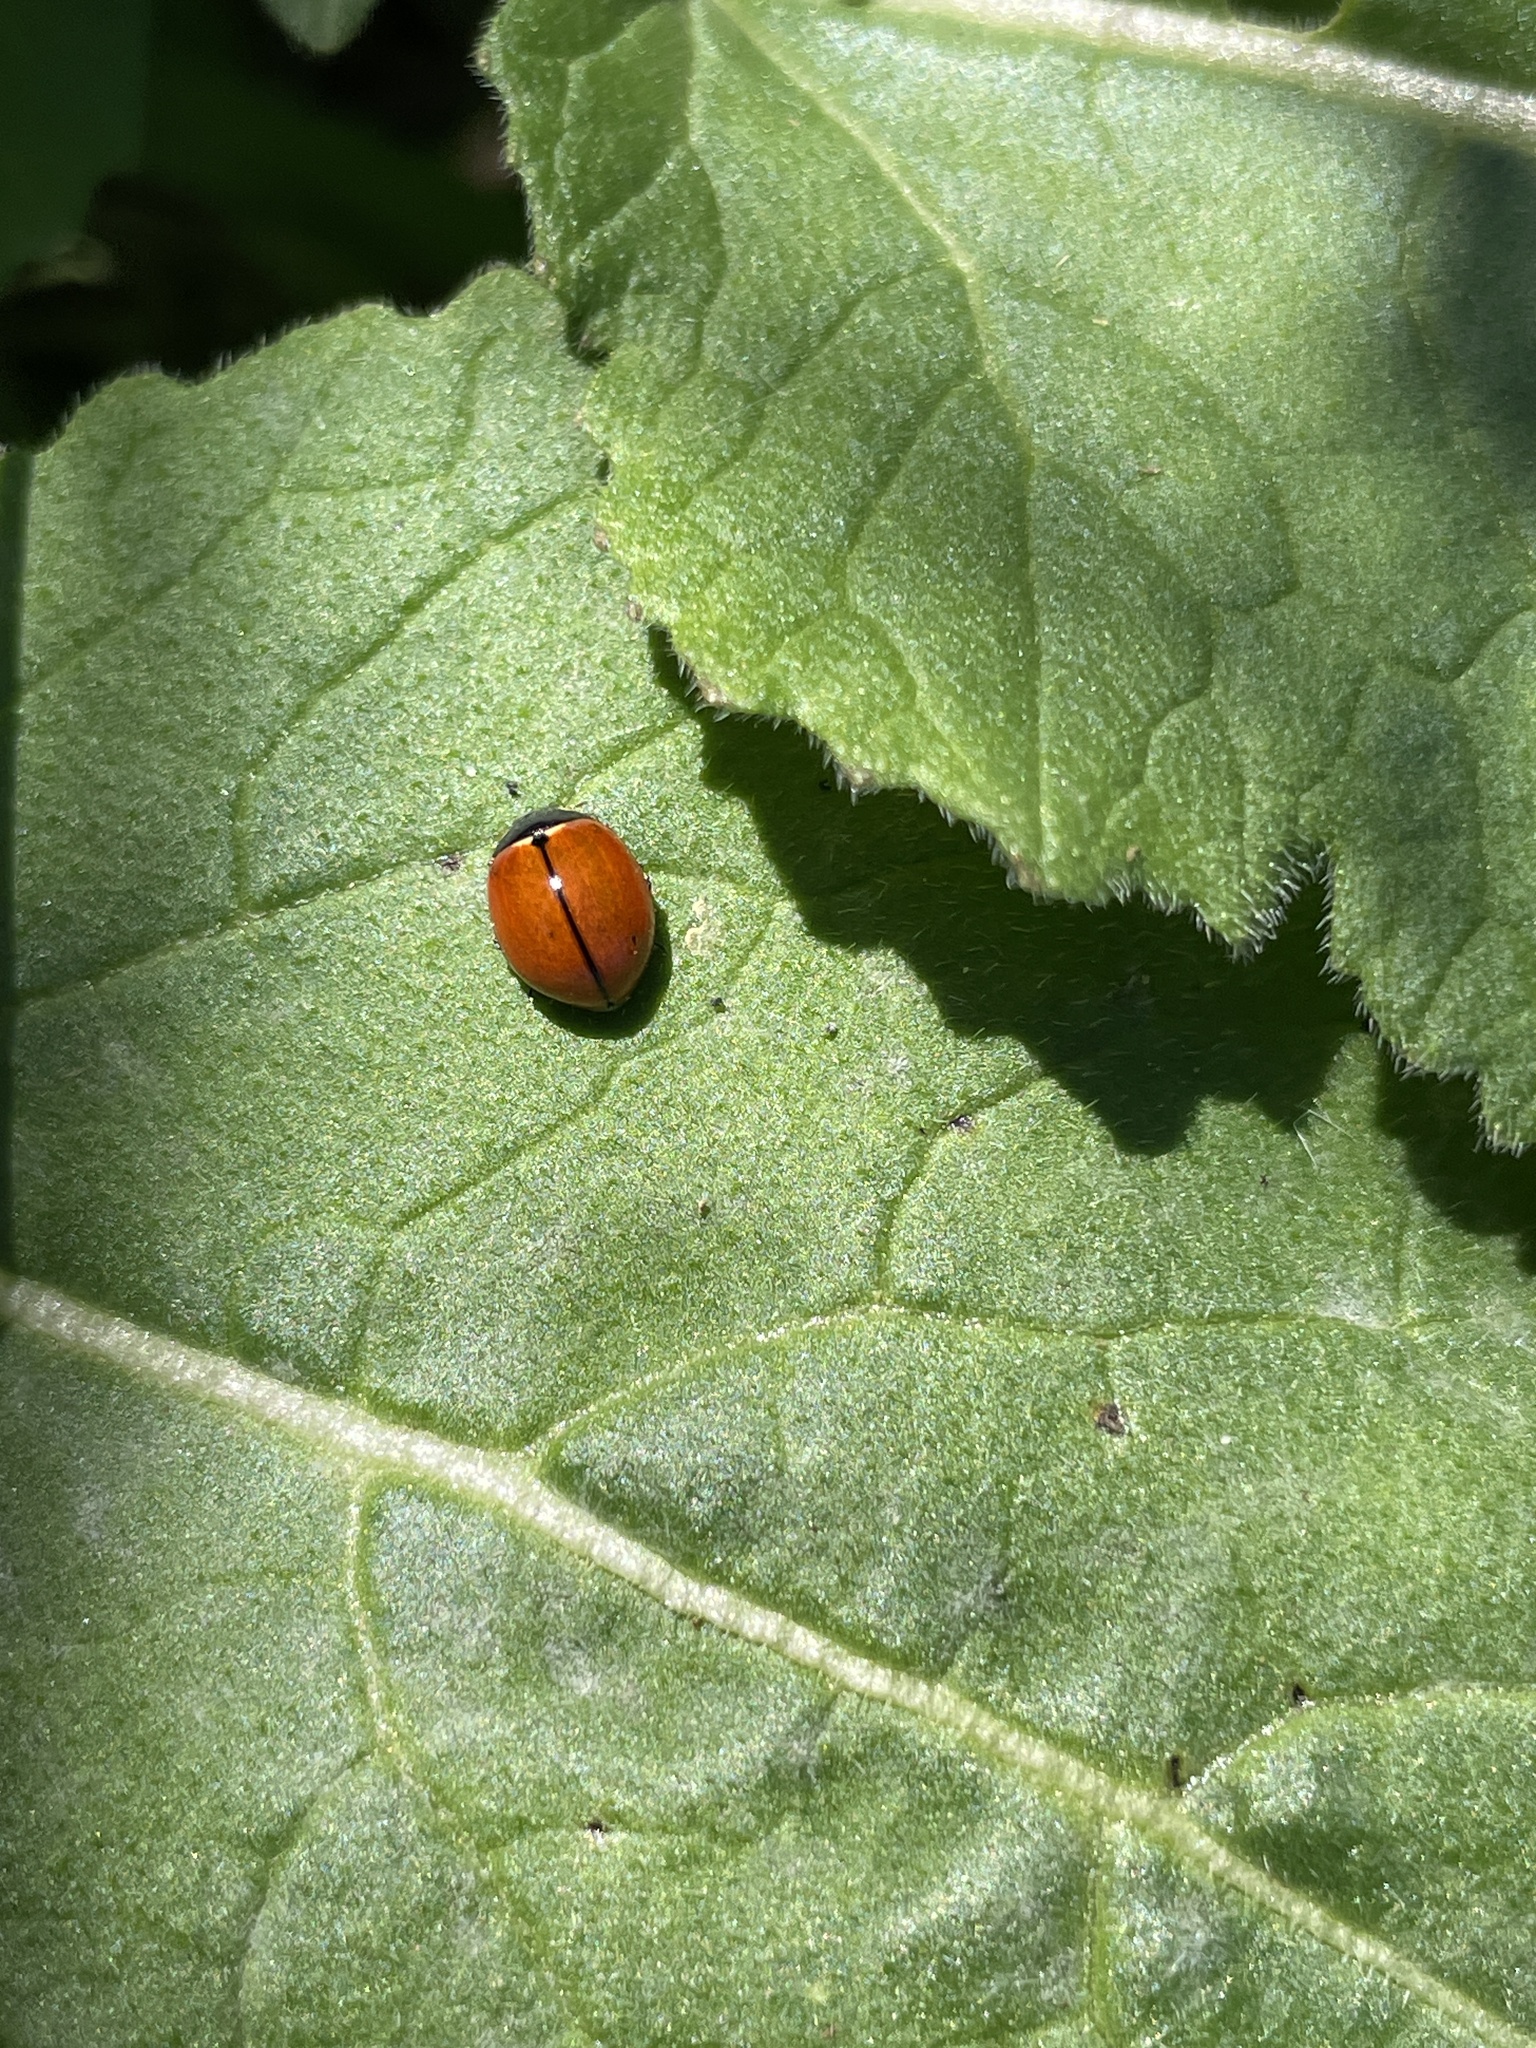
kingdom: Animalia
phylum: Arthropoda
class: Insecta
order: Coleoptera
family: Coccinellidae
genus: Coccinella
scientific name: Coccinella californica
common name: Lady beetle
